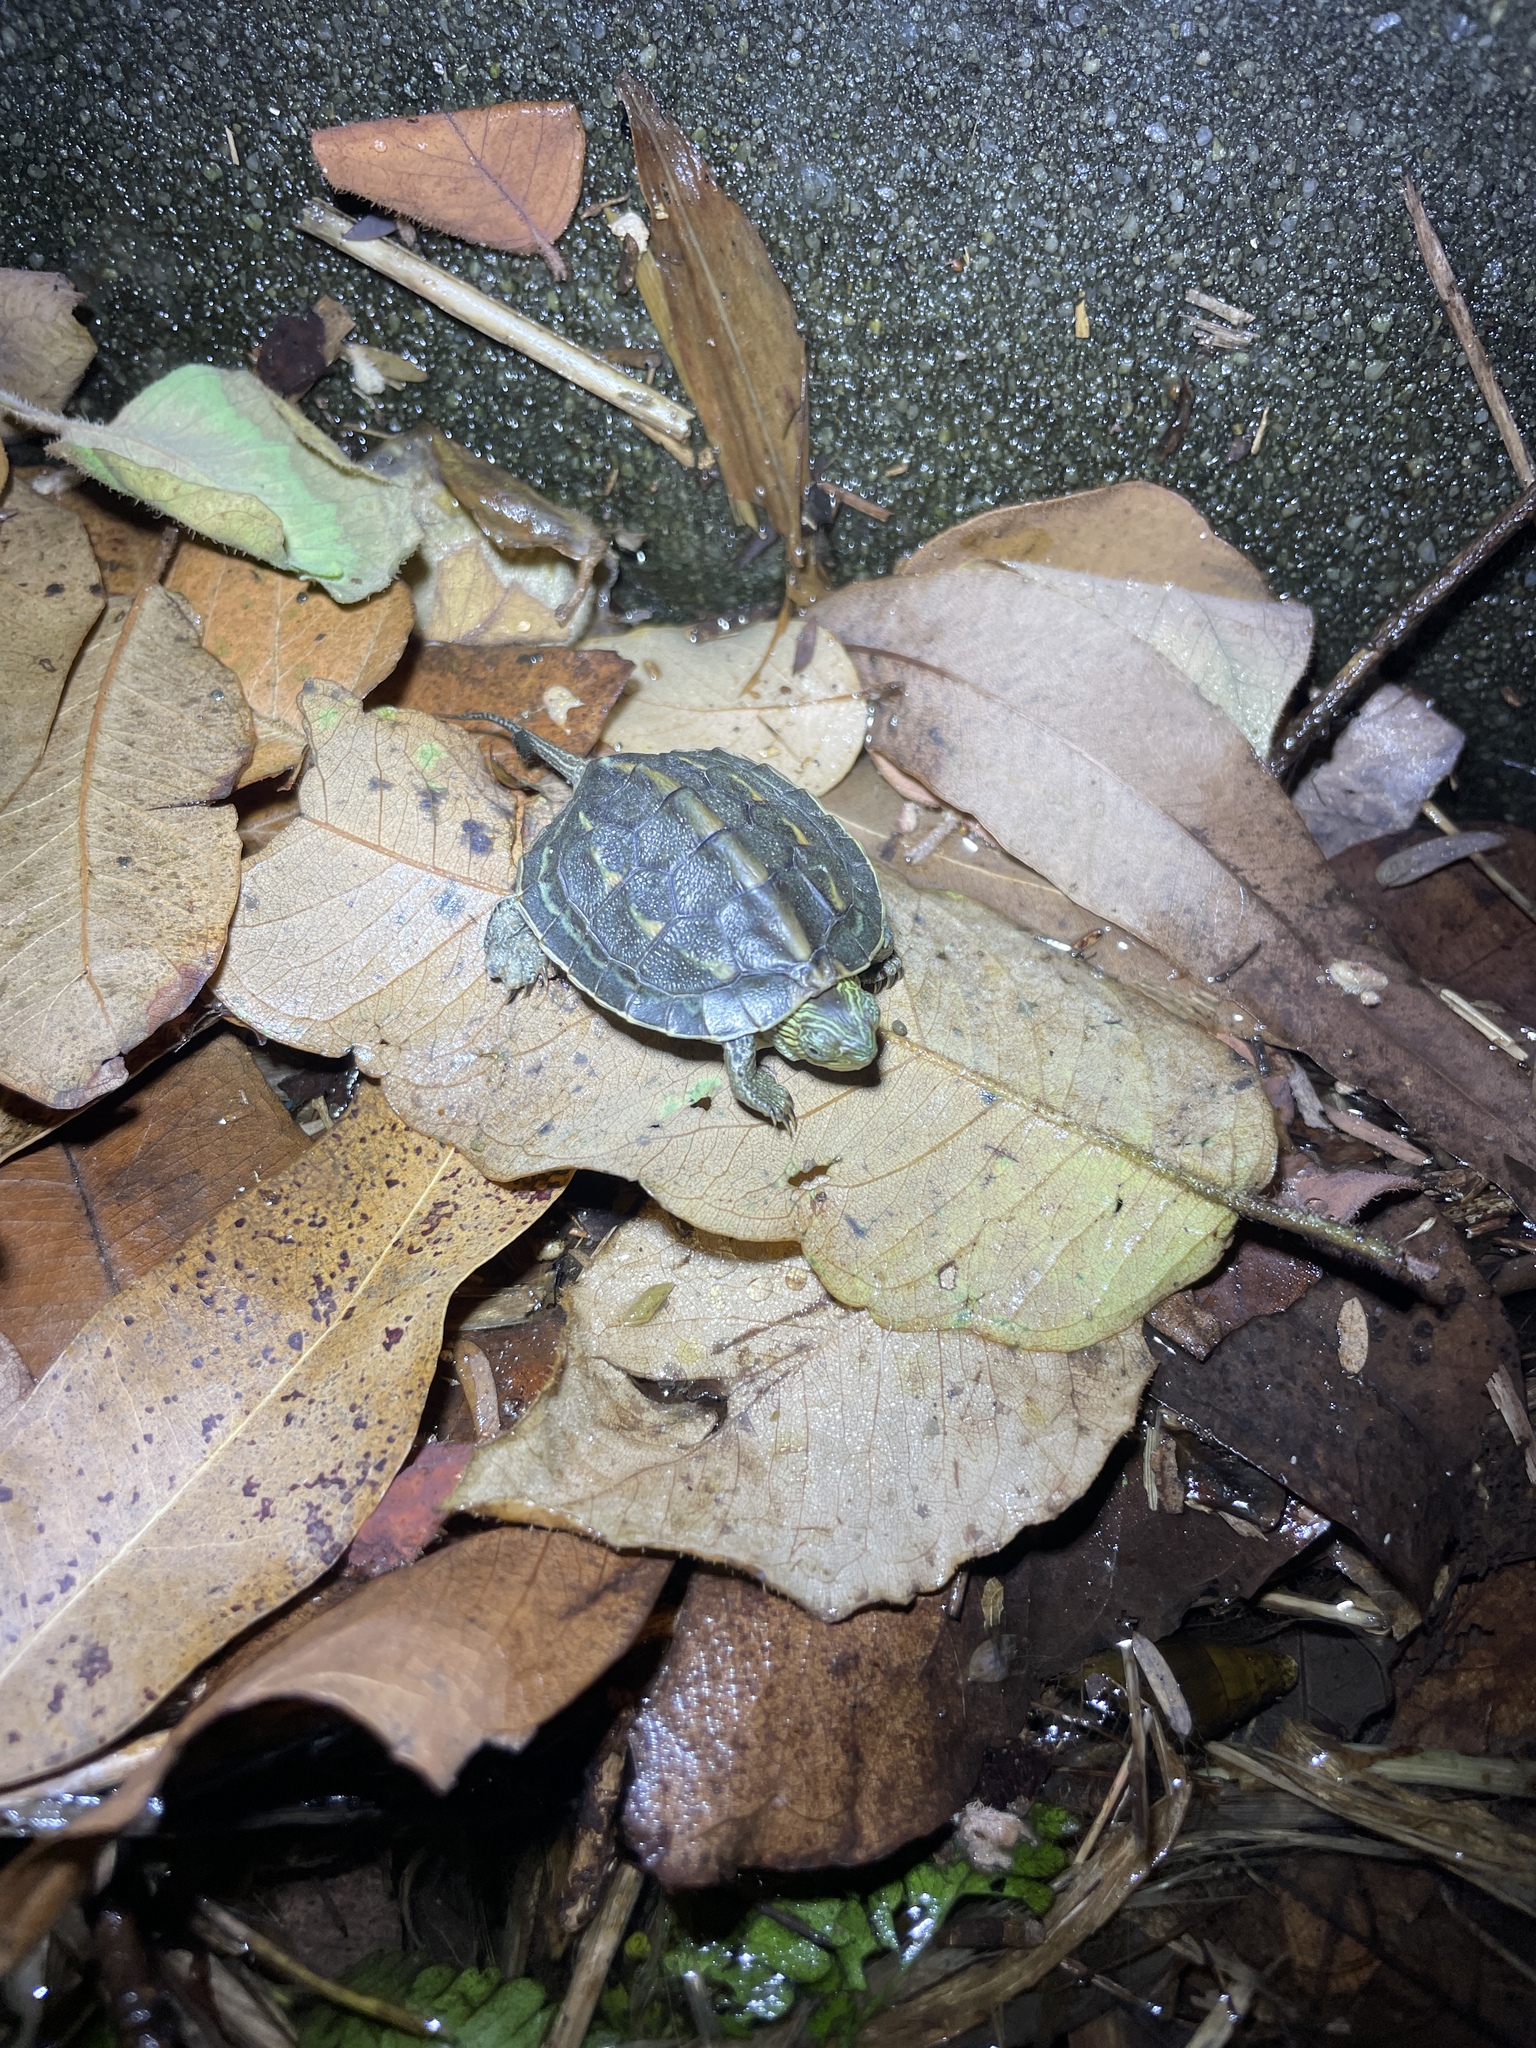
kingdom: Animalia
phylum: Chordata
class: Testudines
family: Geoemydidae
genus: Mauremys
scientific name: Mauremys sinensis
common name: Chinese stripe-necked turtle
